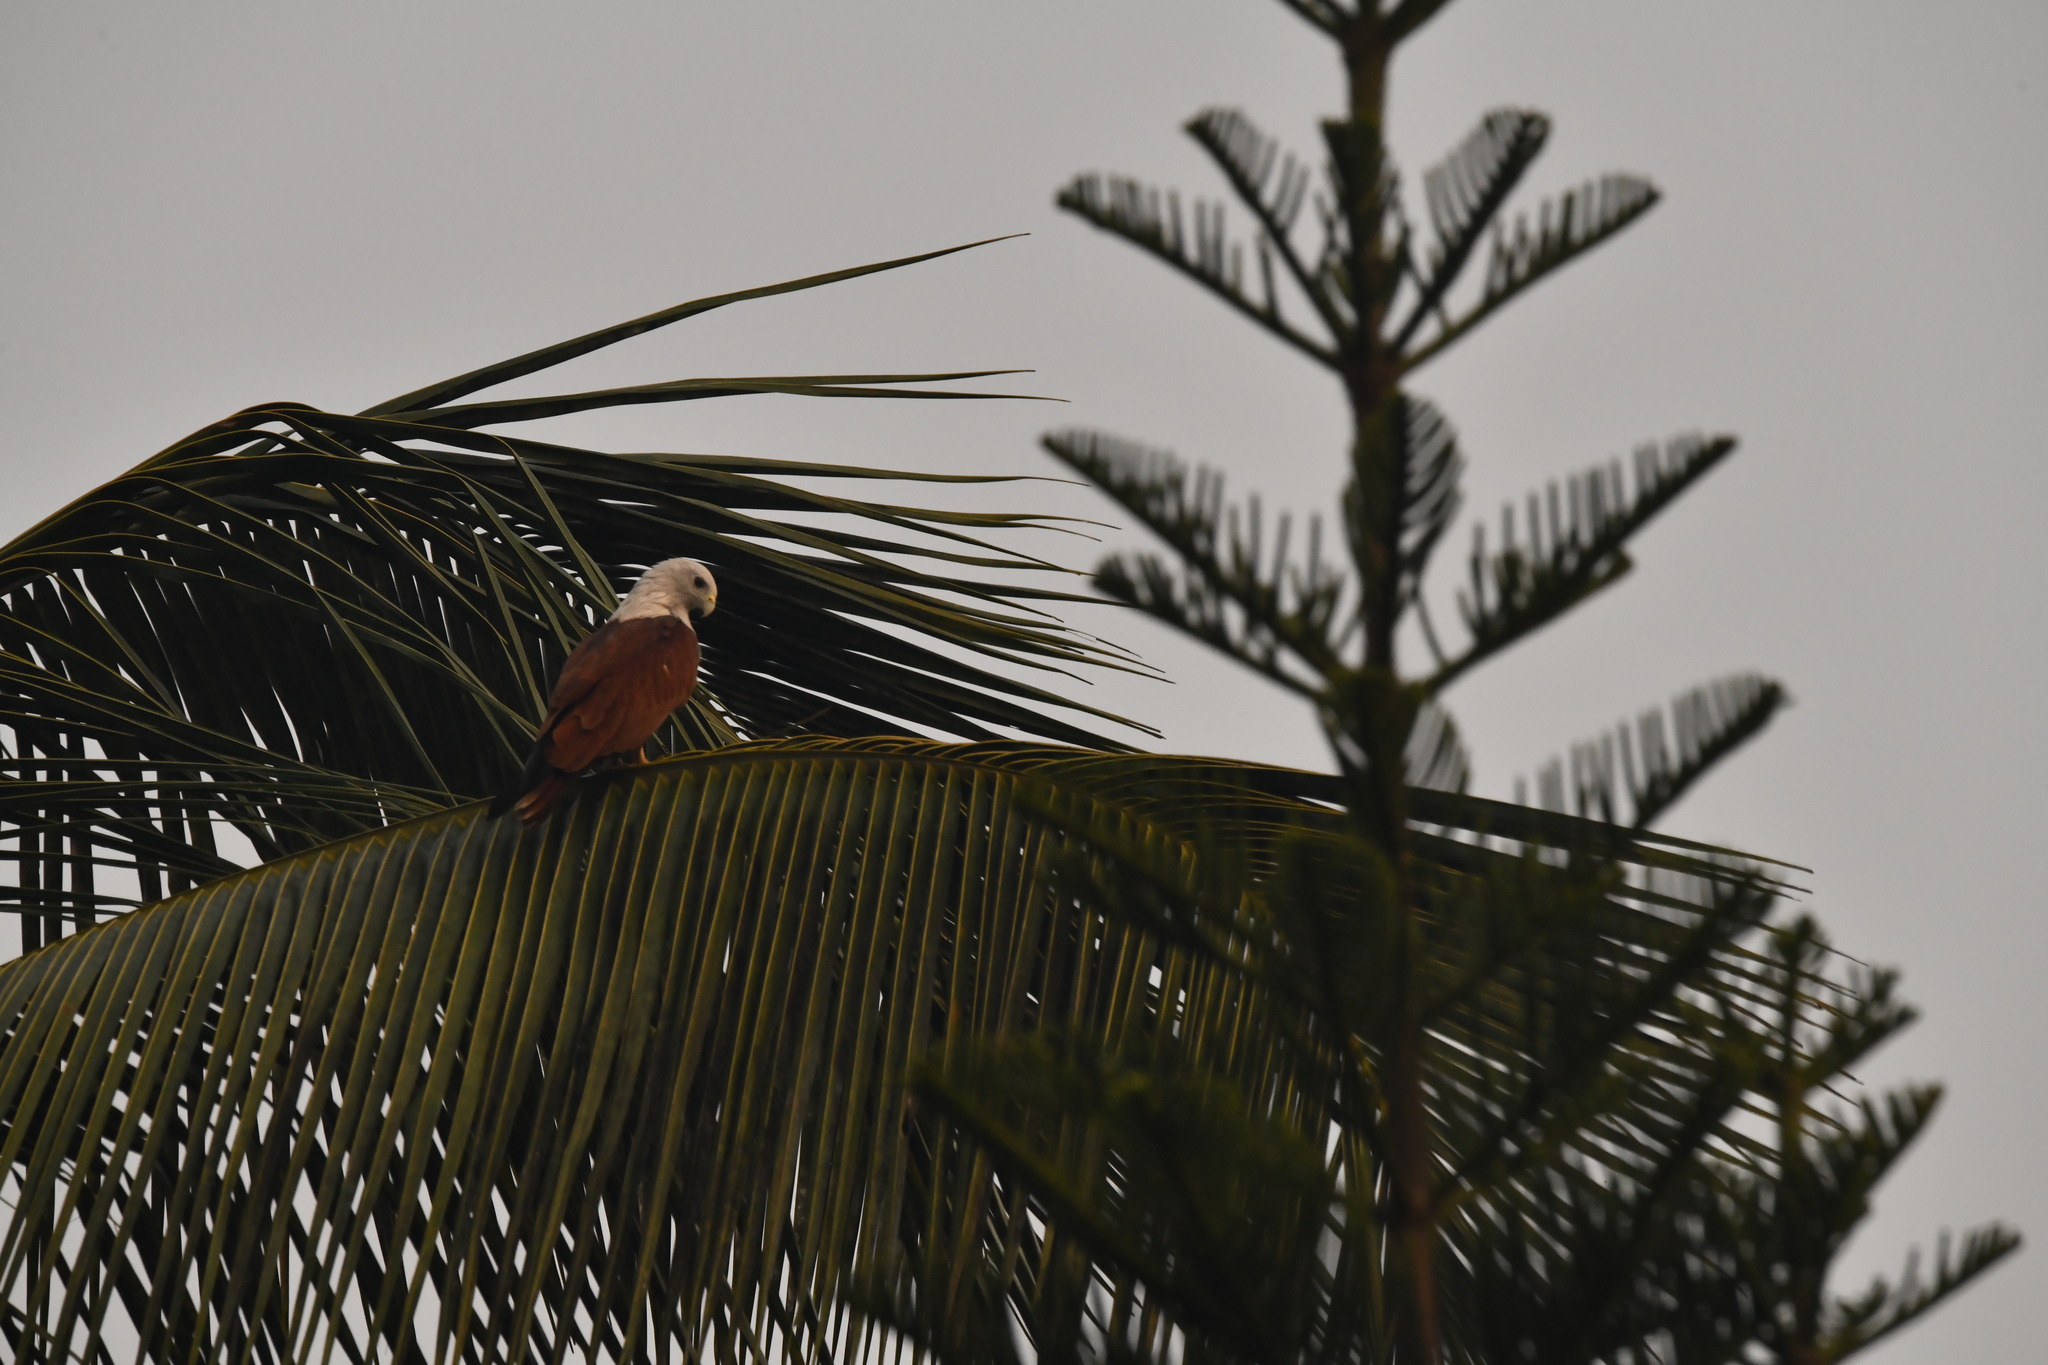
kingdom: Animalia
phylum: Chordata
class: Aves
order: Accipitriformes
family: Accipitridae
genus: Haliastur
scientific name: Haliastur indus
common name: Brahminy kite
